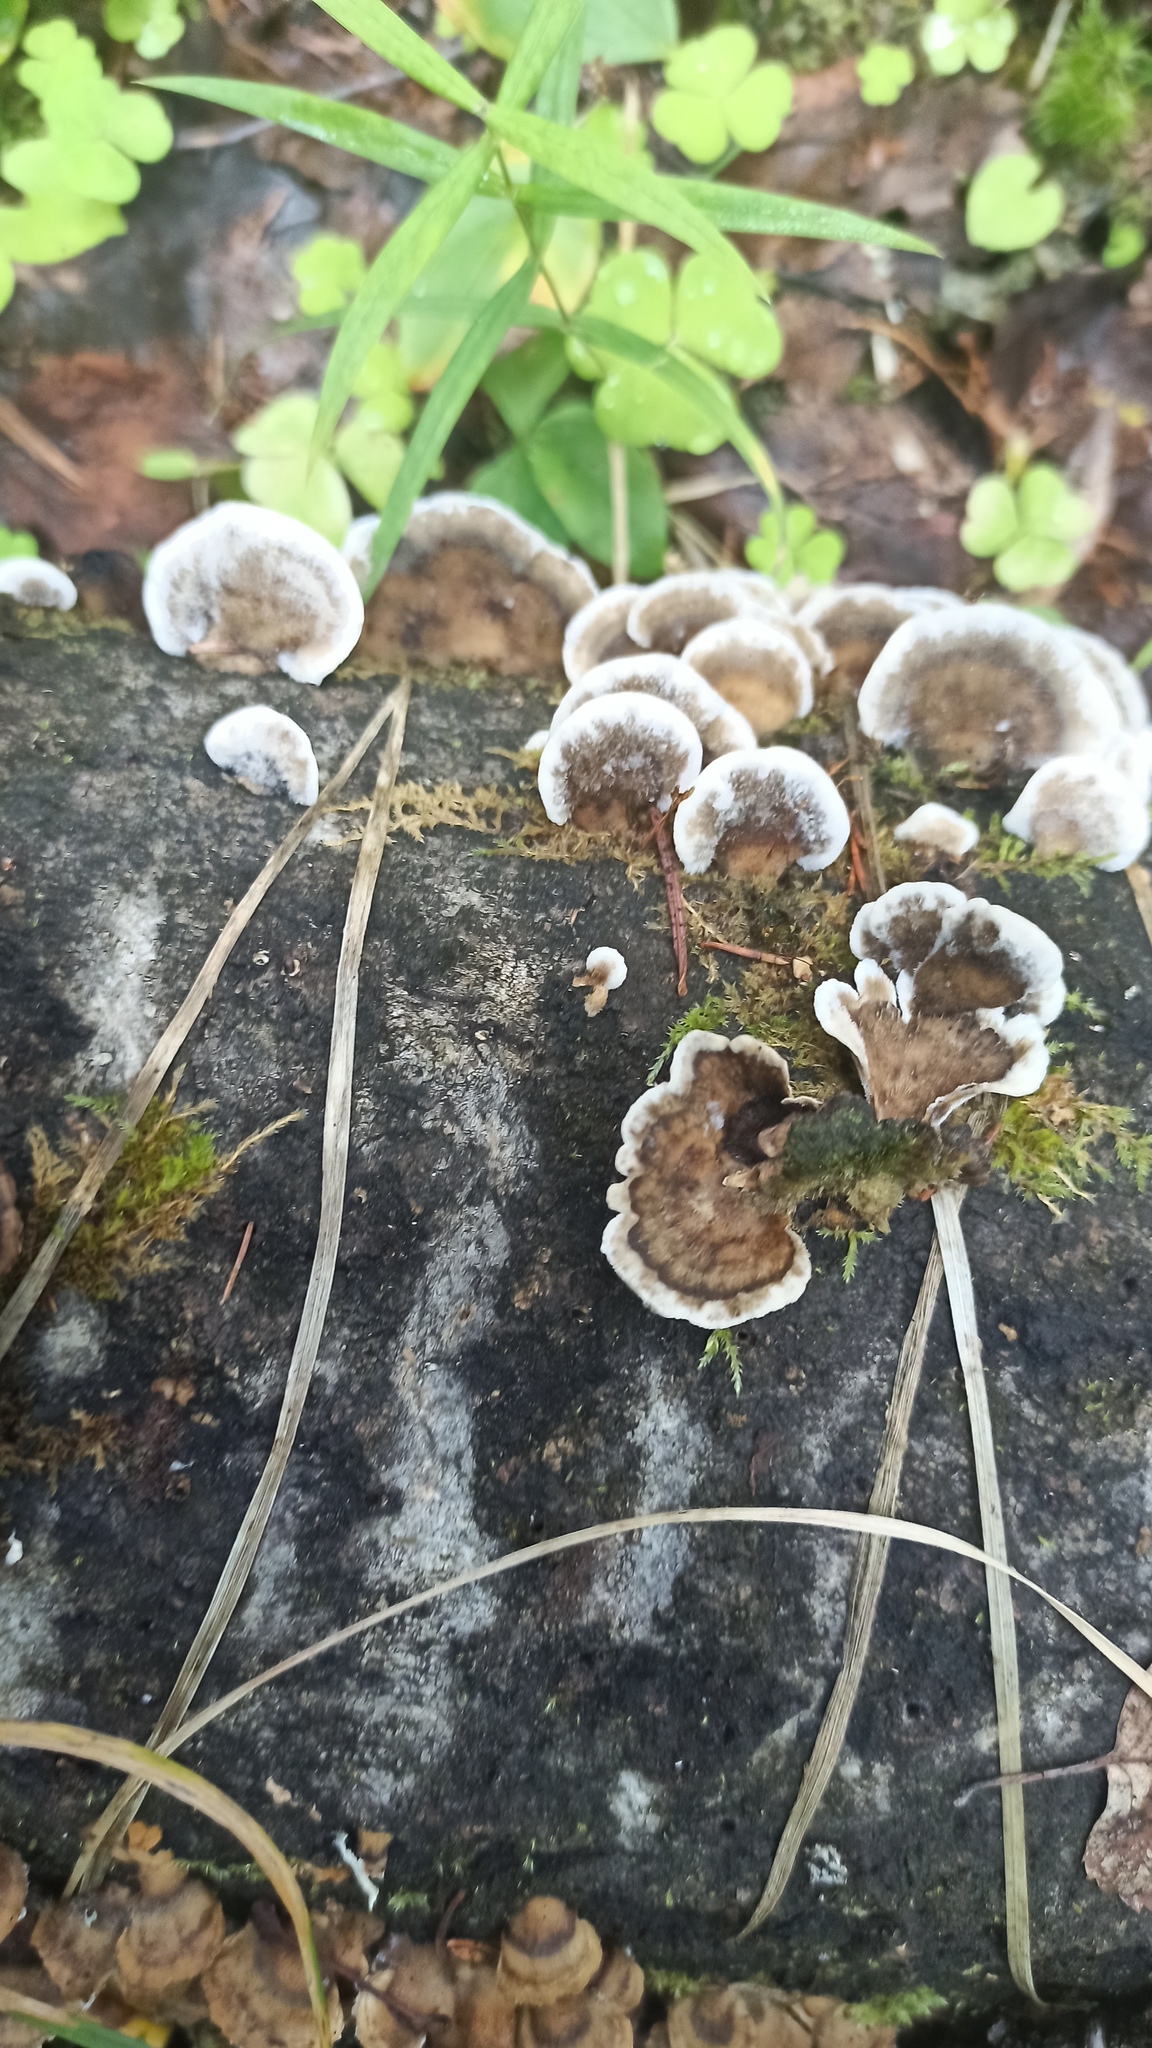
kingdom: Fungi
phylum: Basidiomycota
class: Agaricomycetes
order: Polyporales
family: Phanerochaetaceae
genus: Bjerkandera
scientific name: Bjerkandera adusta
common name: Smoky bracket
